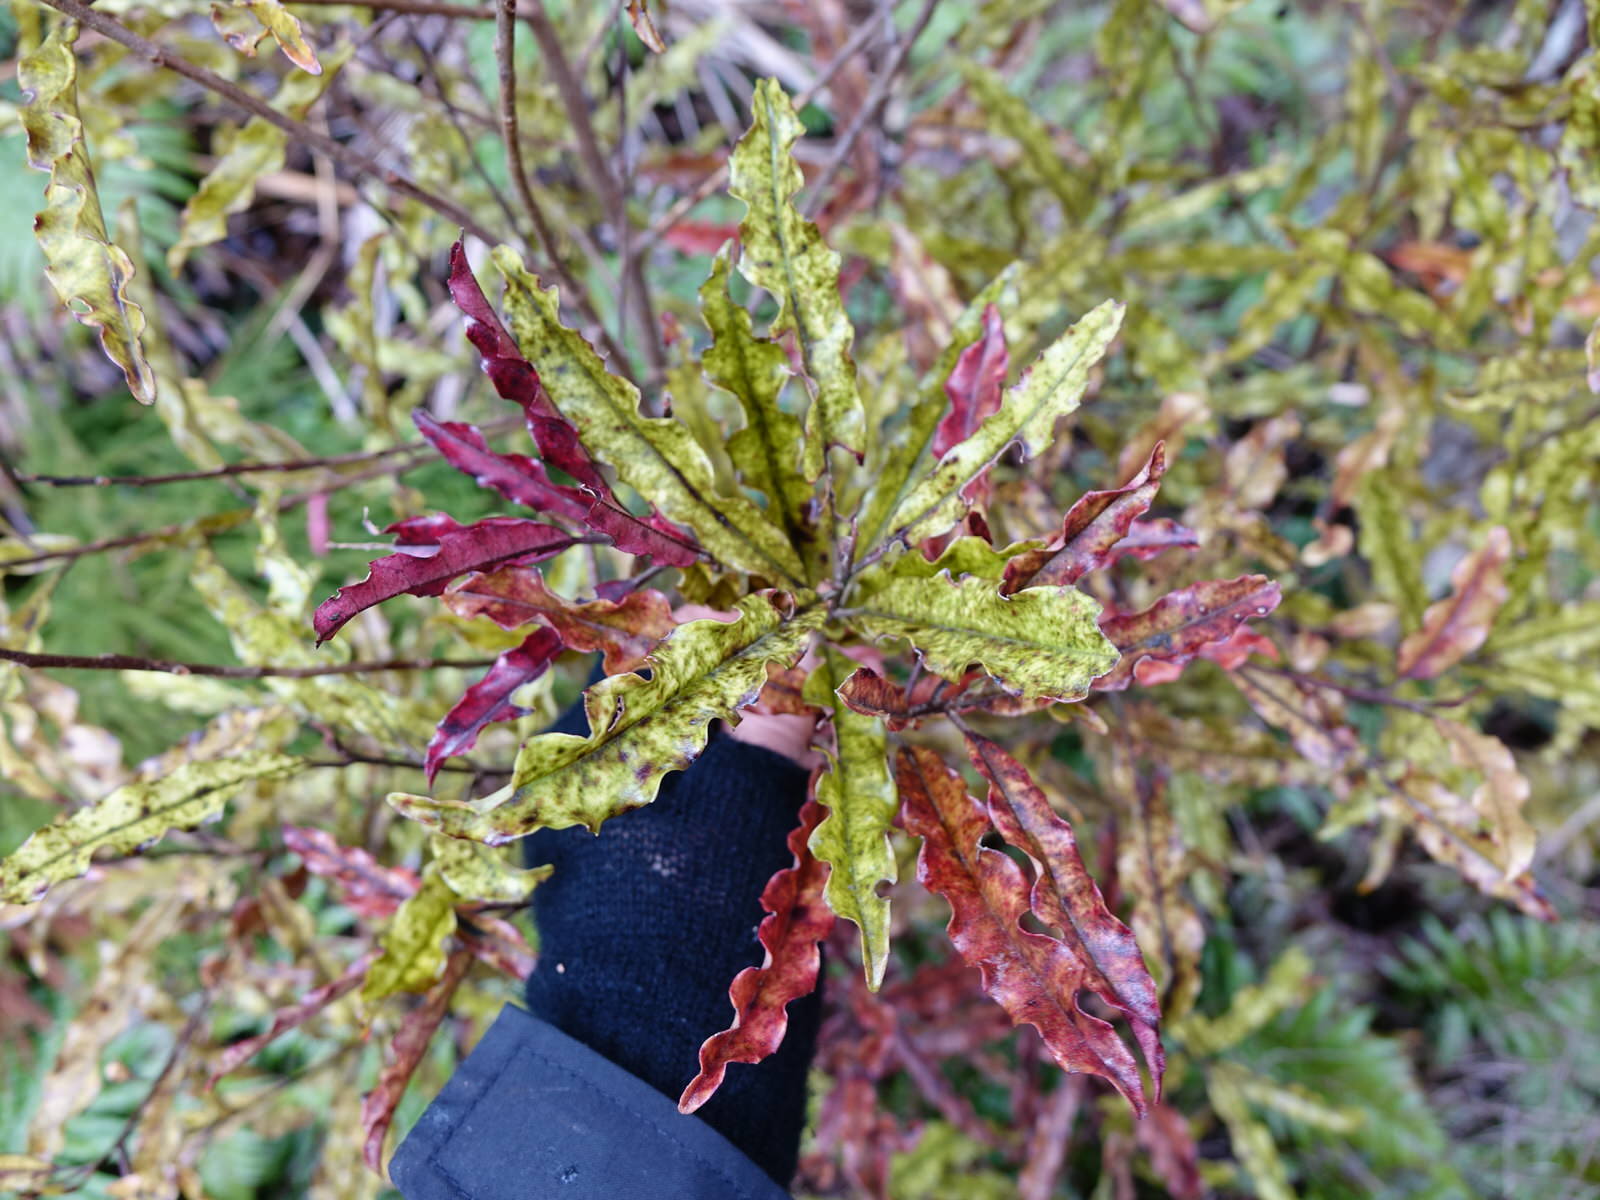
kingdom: Plantae
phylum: Tracheophyta
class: Magnoliopsida
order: Paracryphiales
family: Paracryphiaceae
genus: Quintinia
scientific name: Quintinia serrata
